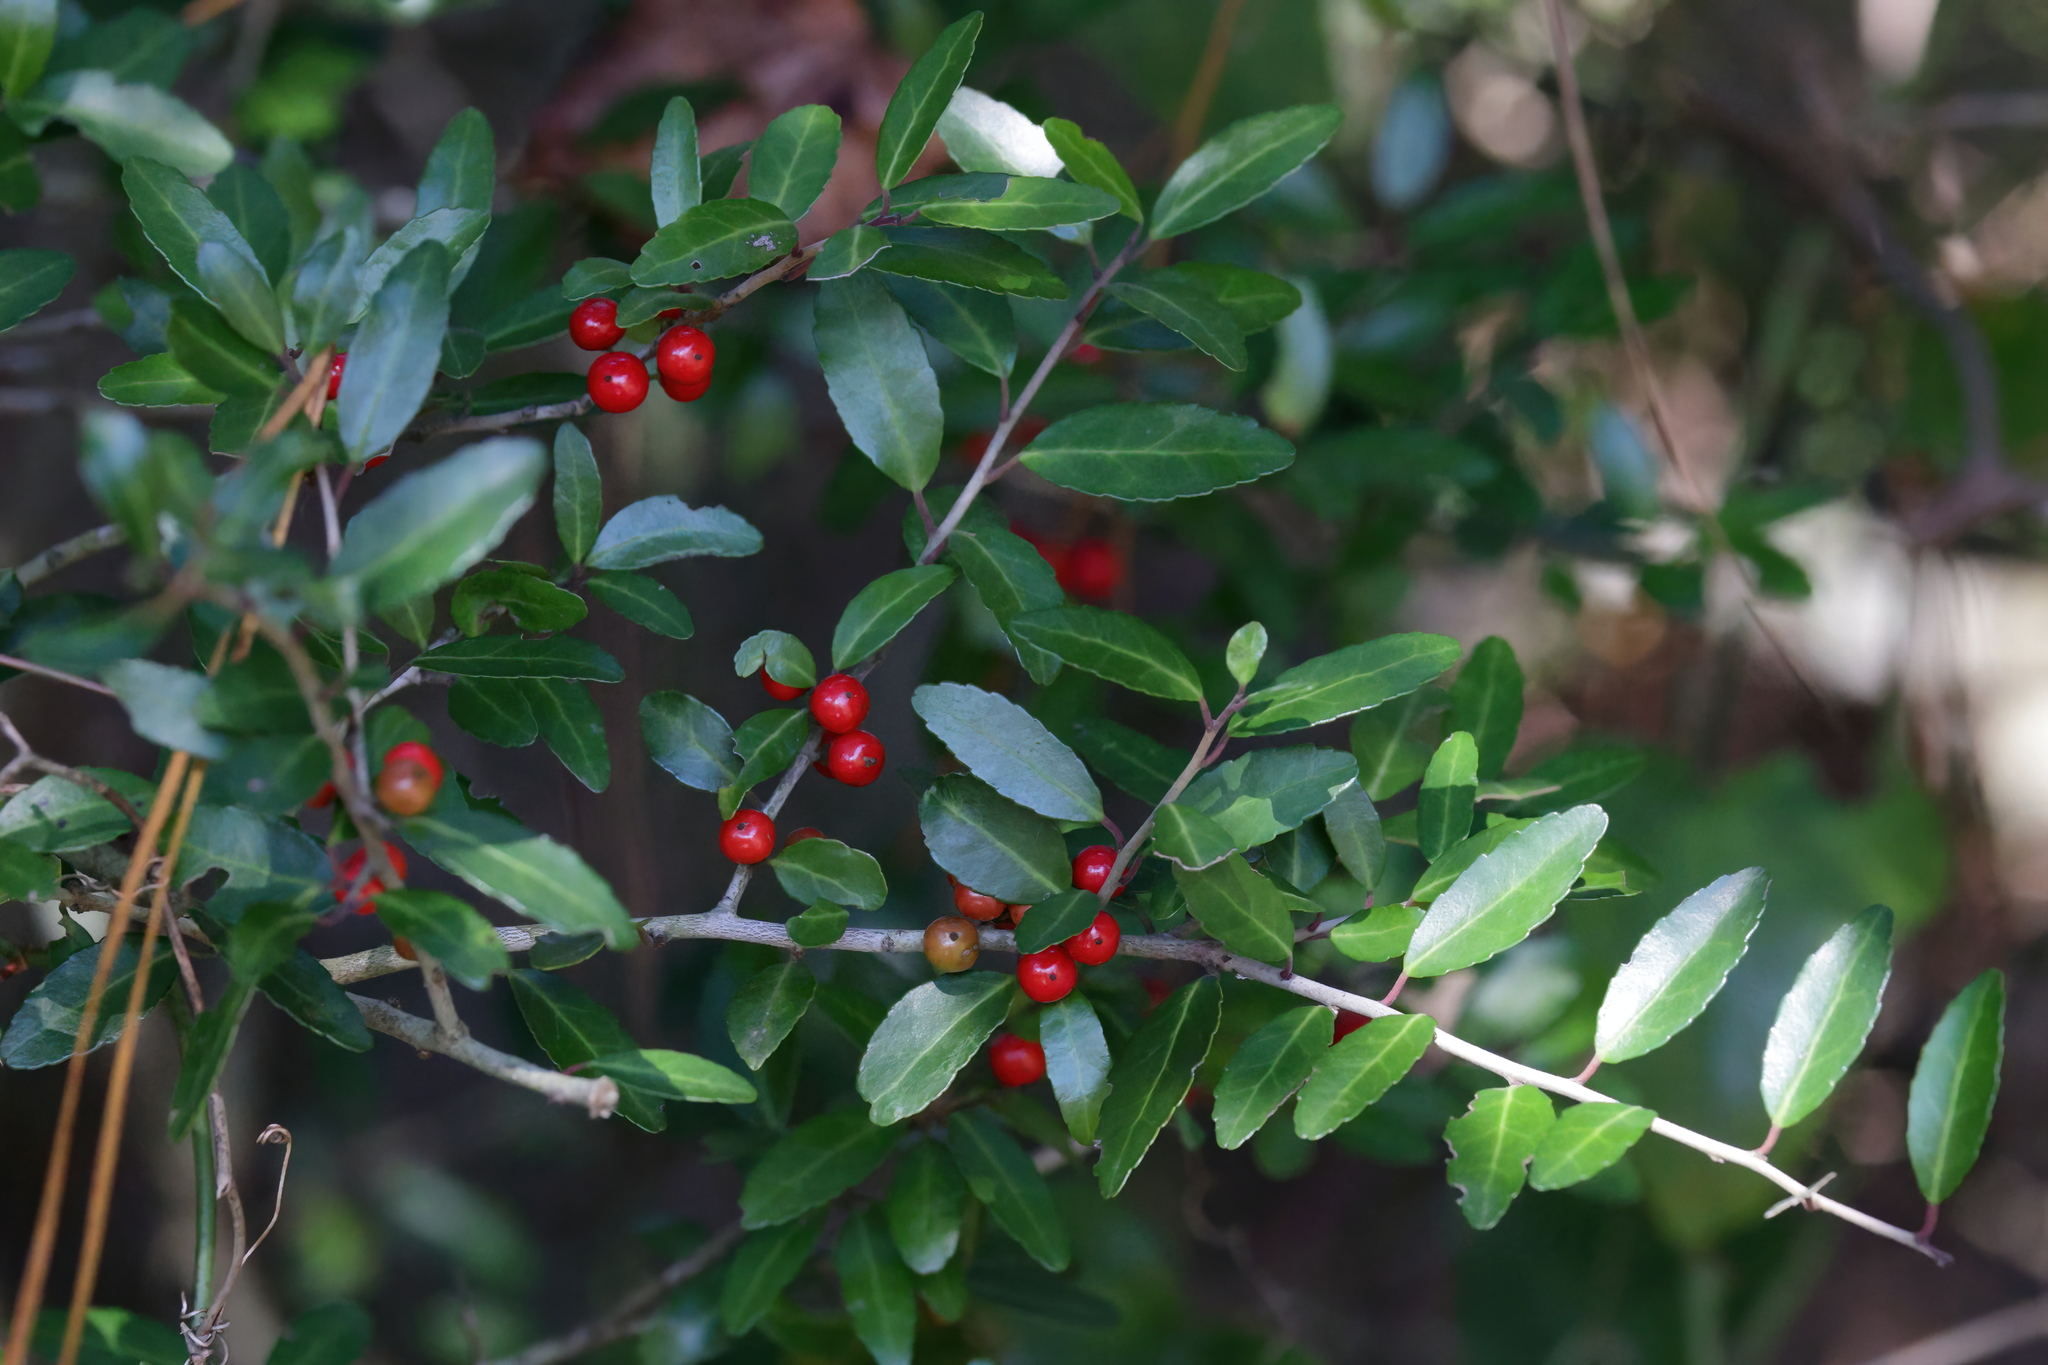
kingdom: Plantae
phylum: Tracheophyta
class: Magnoliopsida
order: Aquifoliales
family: Aquifoliaceae
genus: Ilex
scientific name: Ilex vomitoria
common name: Yaupon holly
